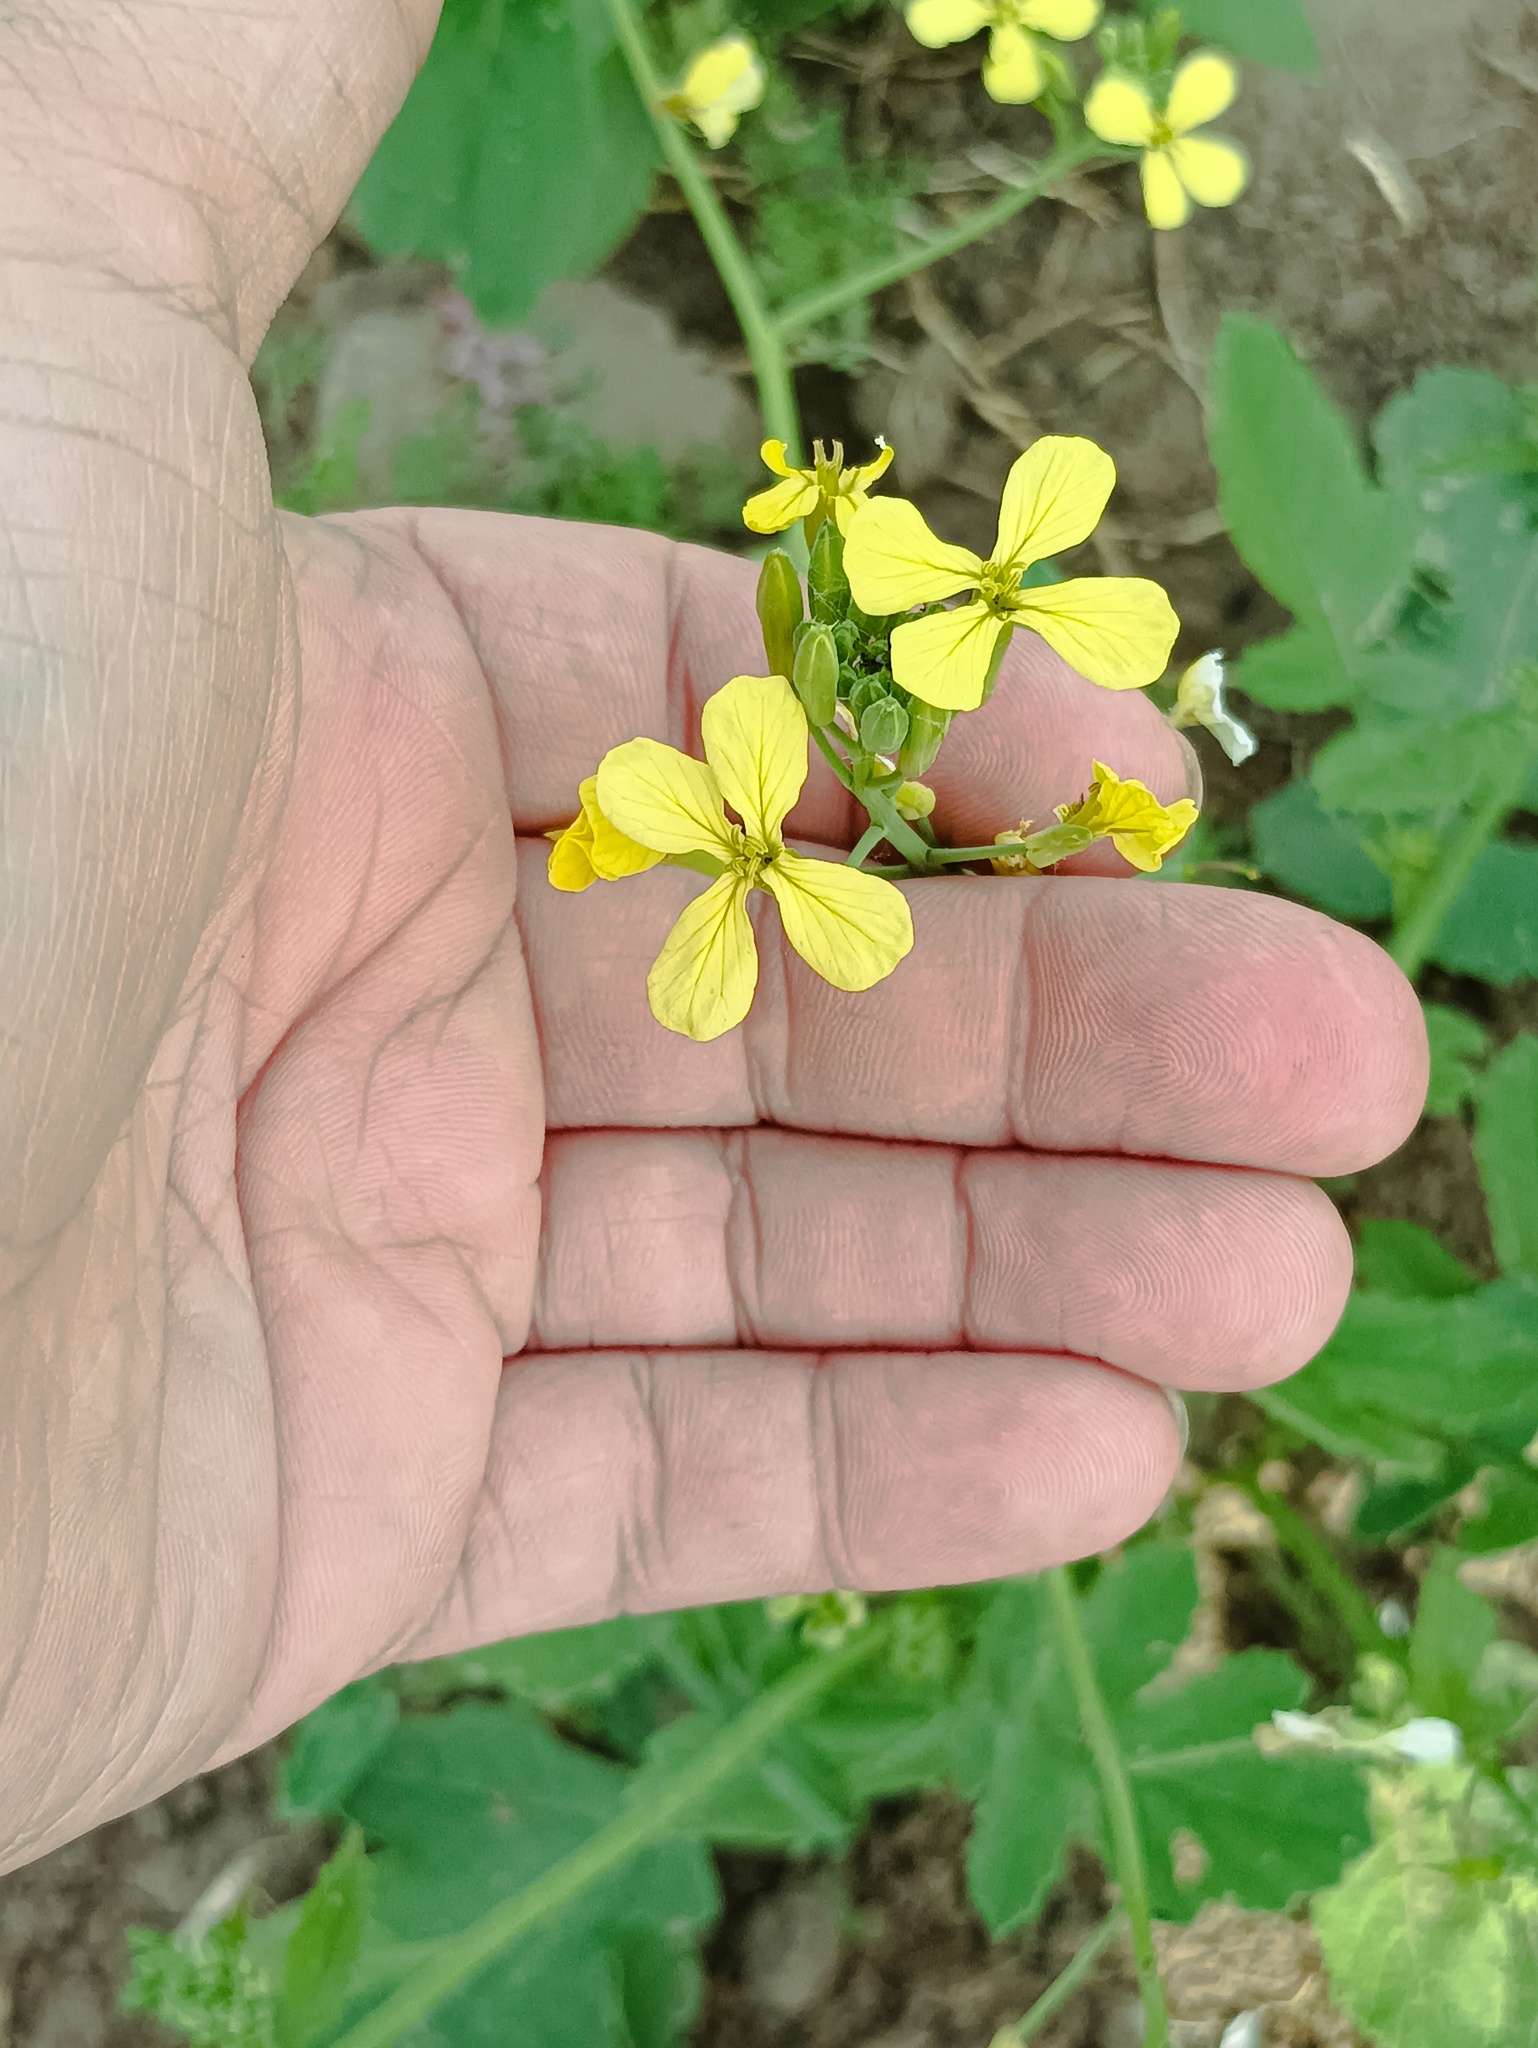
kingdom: Plantae
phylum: Tracheophyta
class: Magnoliopsida
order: Brassicales
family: Brassicaceae
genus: Raphanus
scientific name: Raphanus raphanistrum
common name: Wild radish
